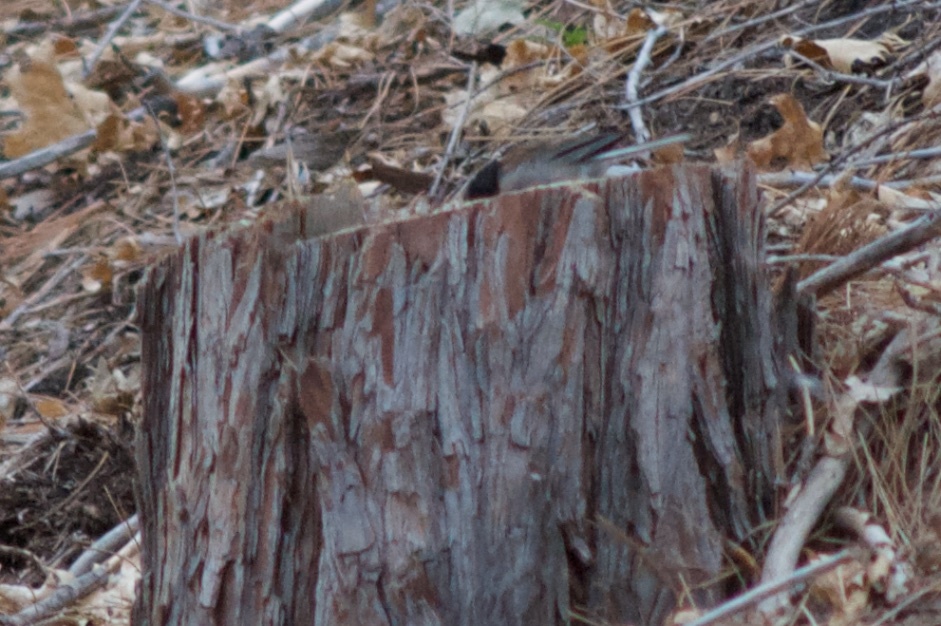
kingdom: Animalia
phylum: Chordata
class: Aves
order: Passeriformes
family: Passerellidae
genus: Junco
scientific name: Junco hyemalis
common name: Dark-eyed junco
